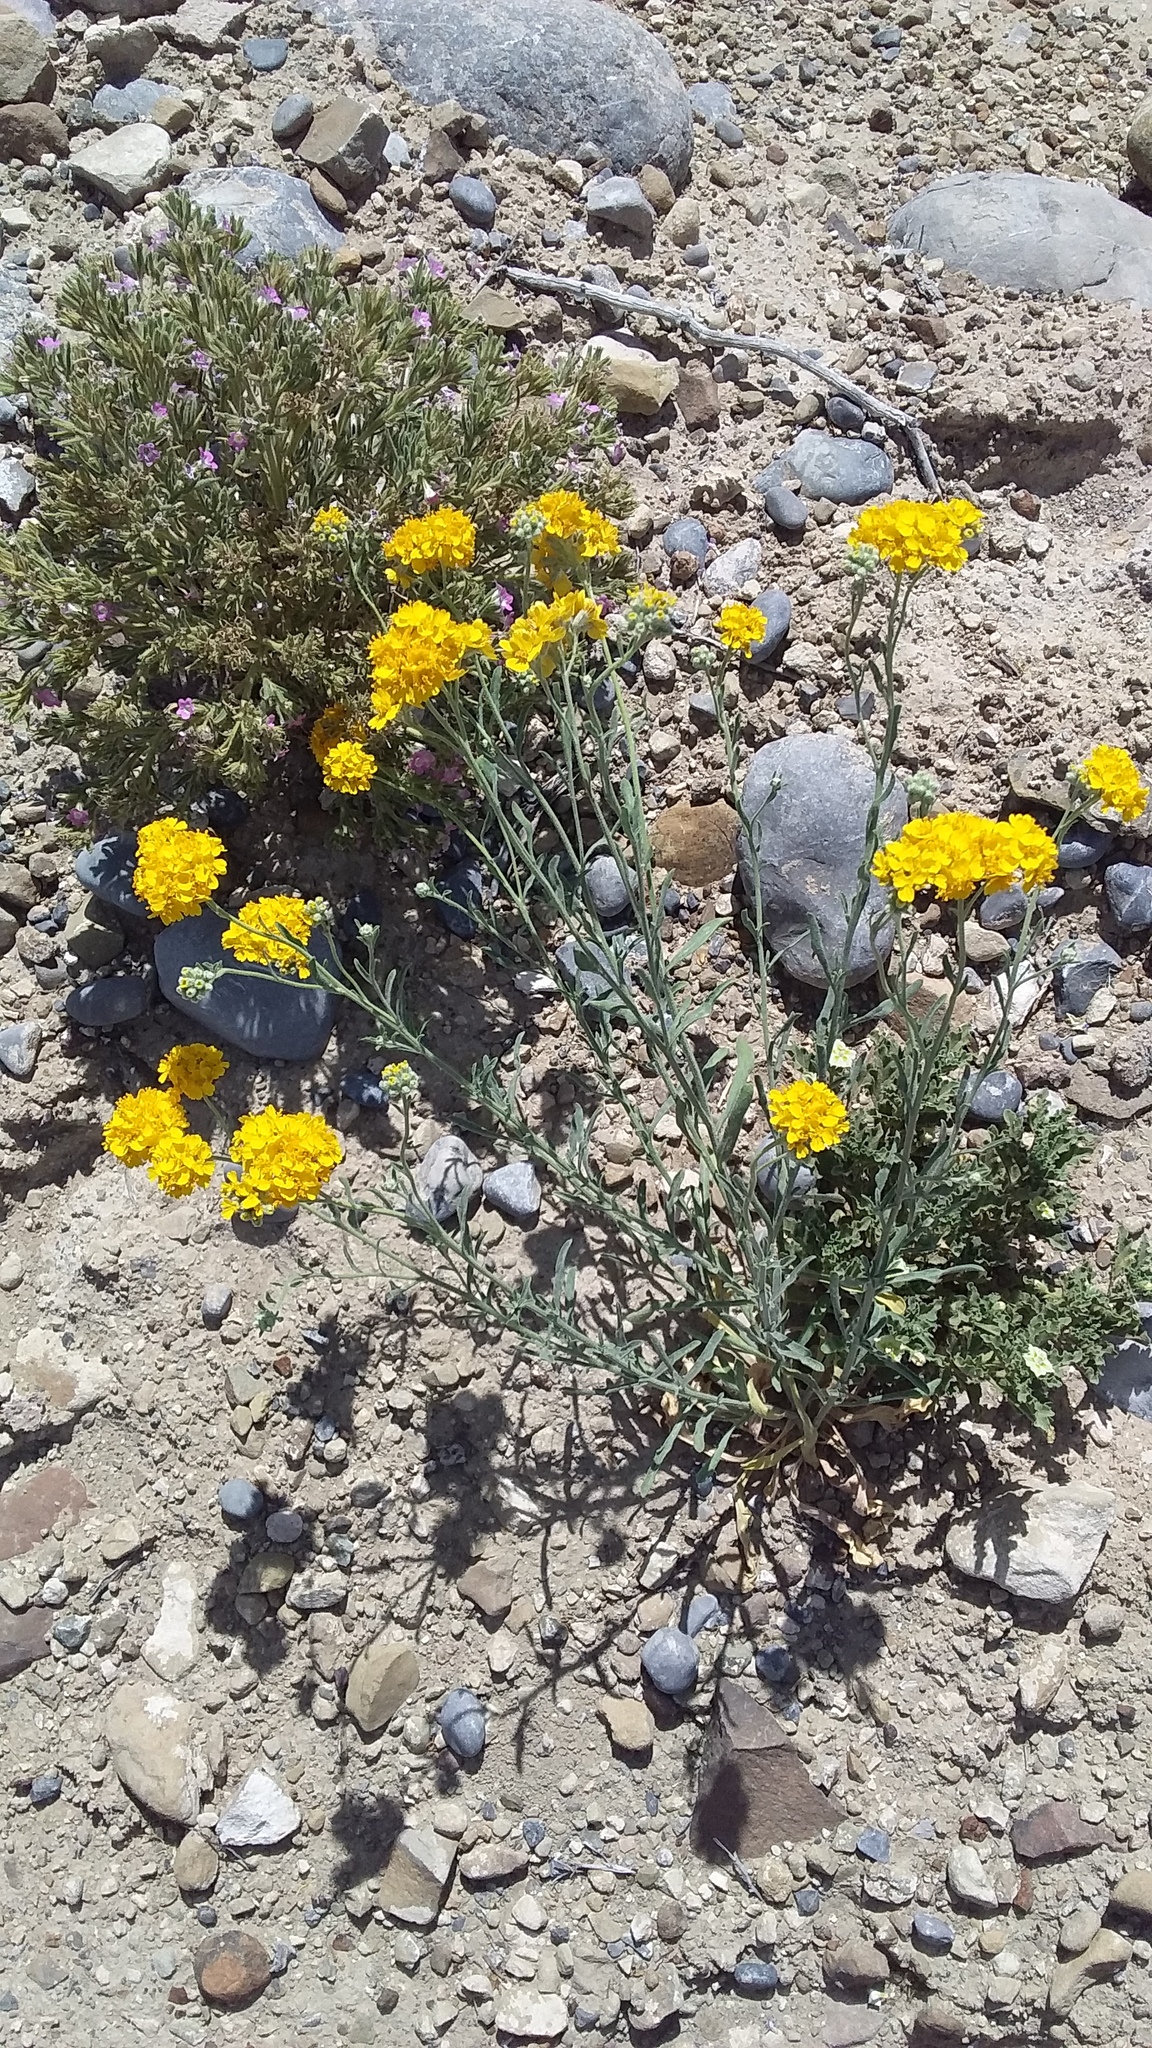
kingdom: Plantae
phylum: Tracheophyta
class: Magnoliopsida
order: Asterales
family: Asteraceae
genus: Psilostrophe
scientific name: Psilostrophe gnaphalioides
